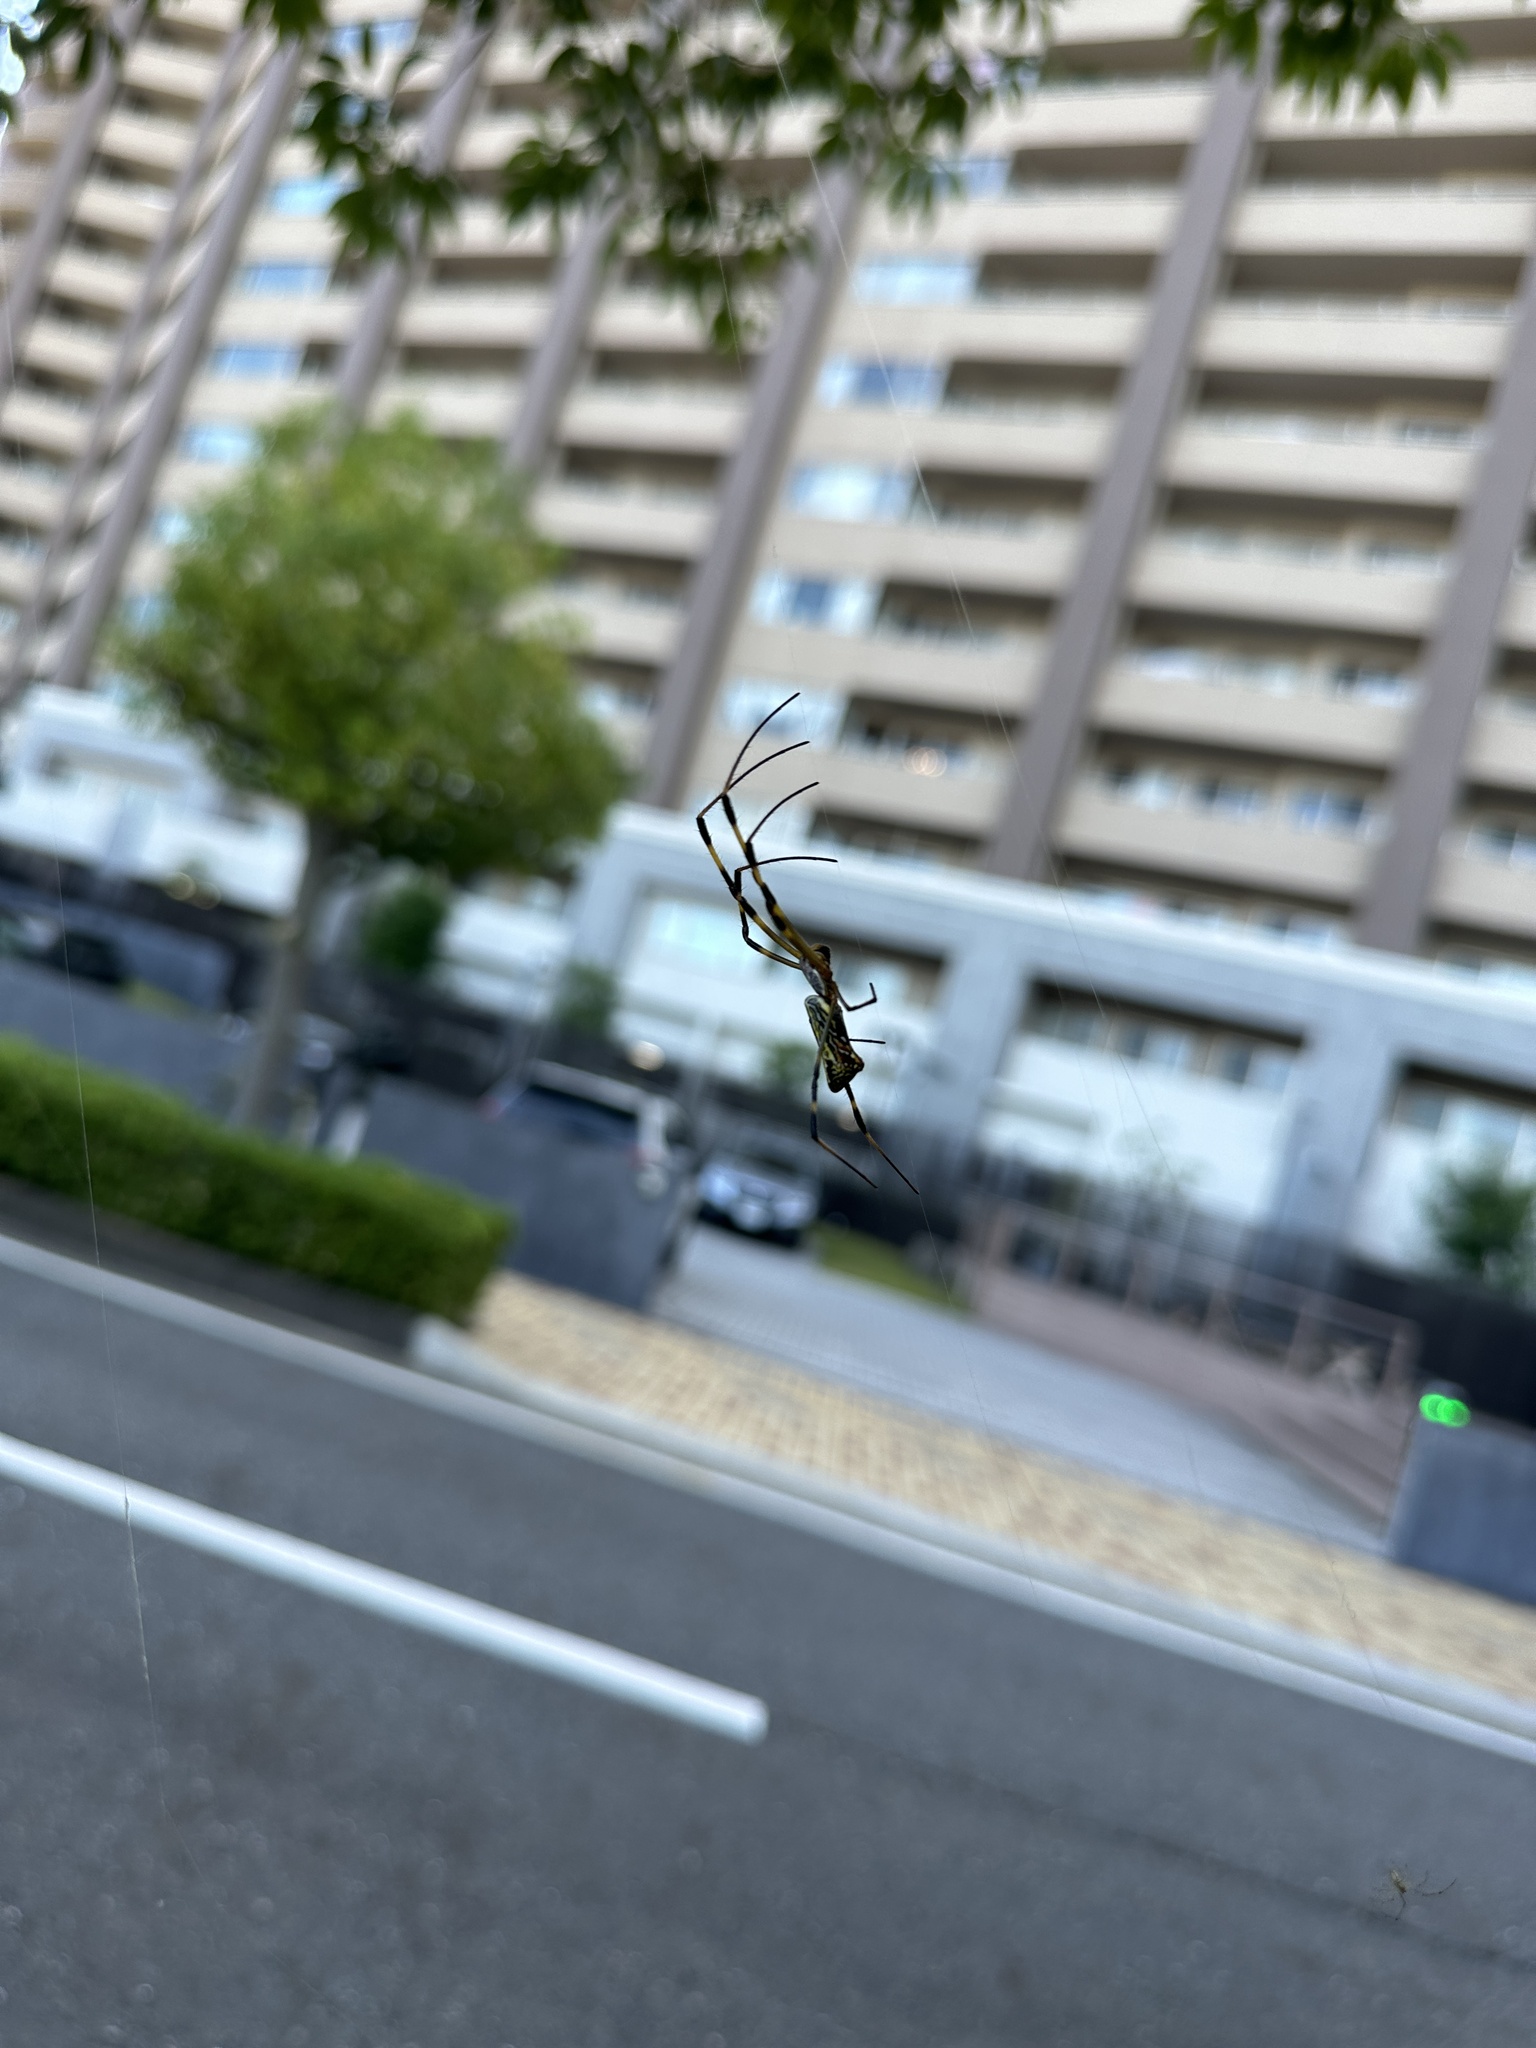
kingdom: Animalia
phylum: Arthropoda
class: Arachnida
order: Araneae
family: Araneidae
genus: Trichonephila
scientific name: Trichonephila clavata
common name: Jorō spider
